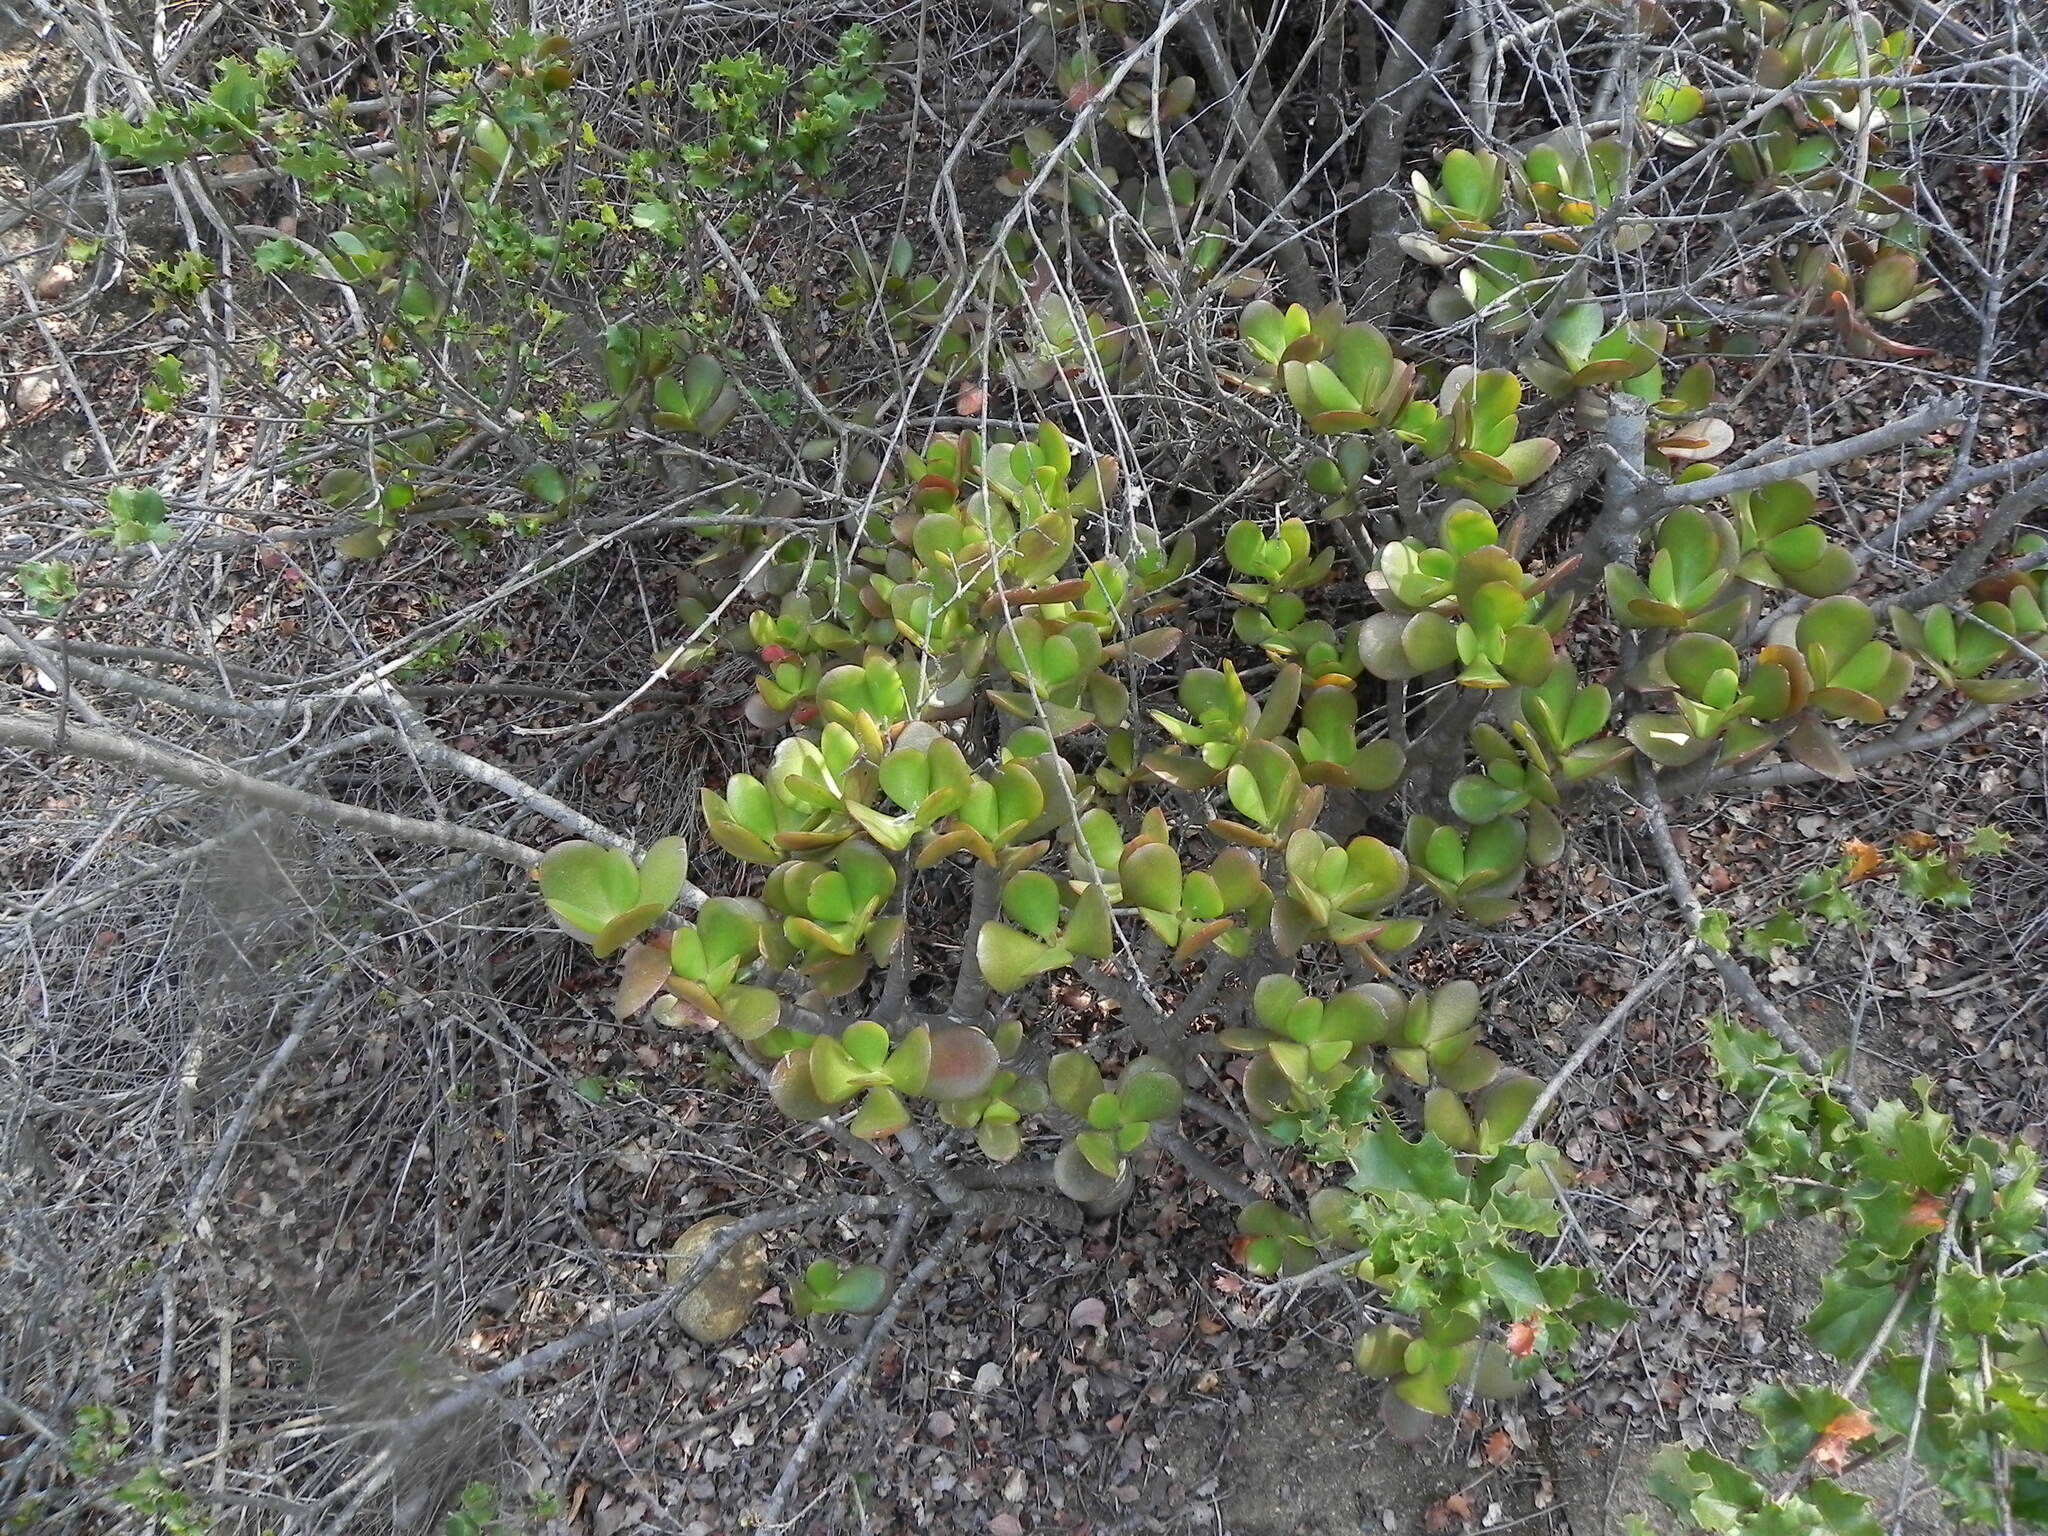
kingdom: Plantae
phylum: Tracheophyta
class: Magnoliopsida
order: Saxifragales
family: Crassulaceae
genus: Crassula
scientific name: Crassula ovata
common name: Jade plant
